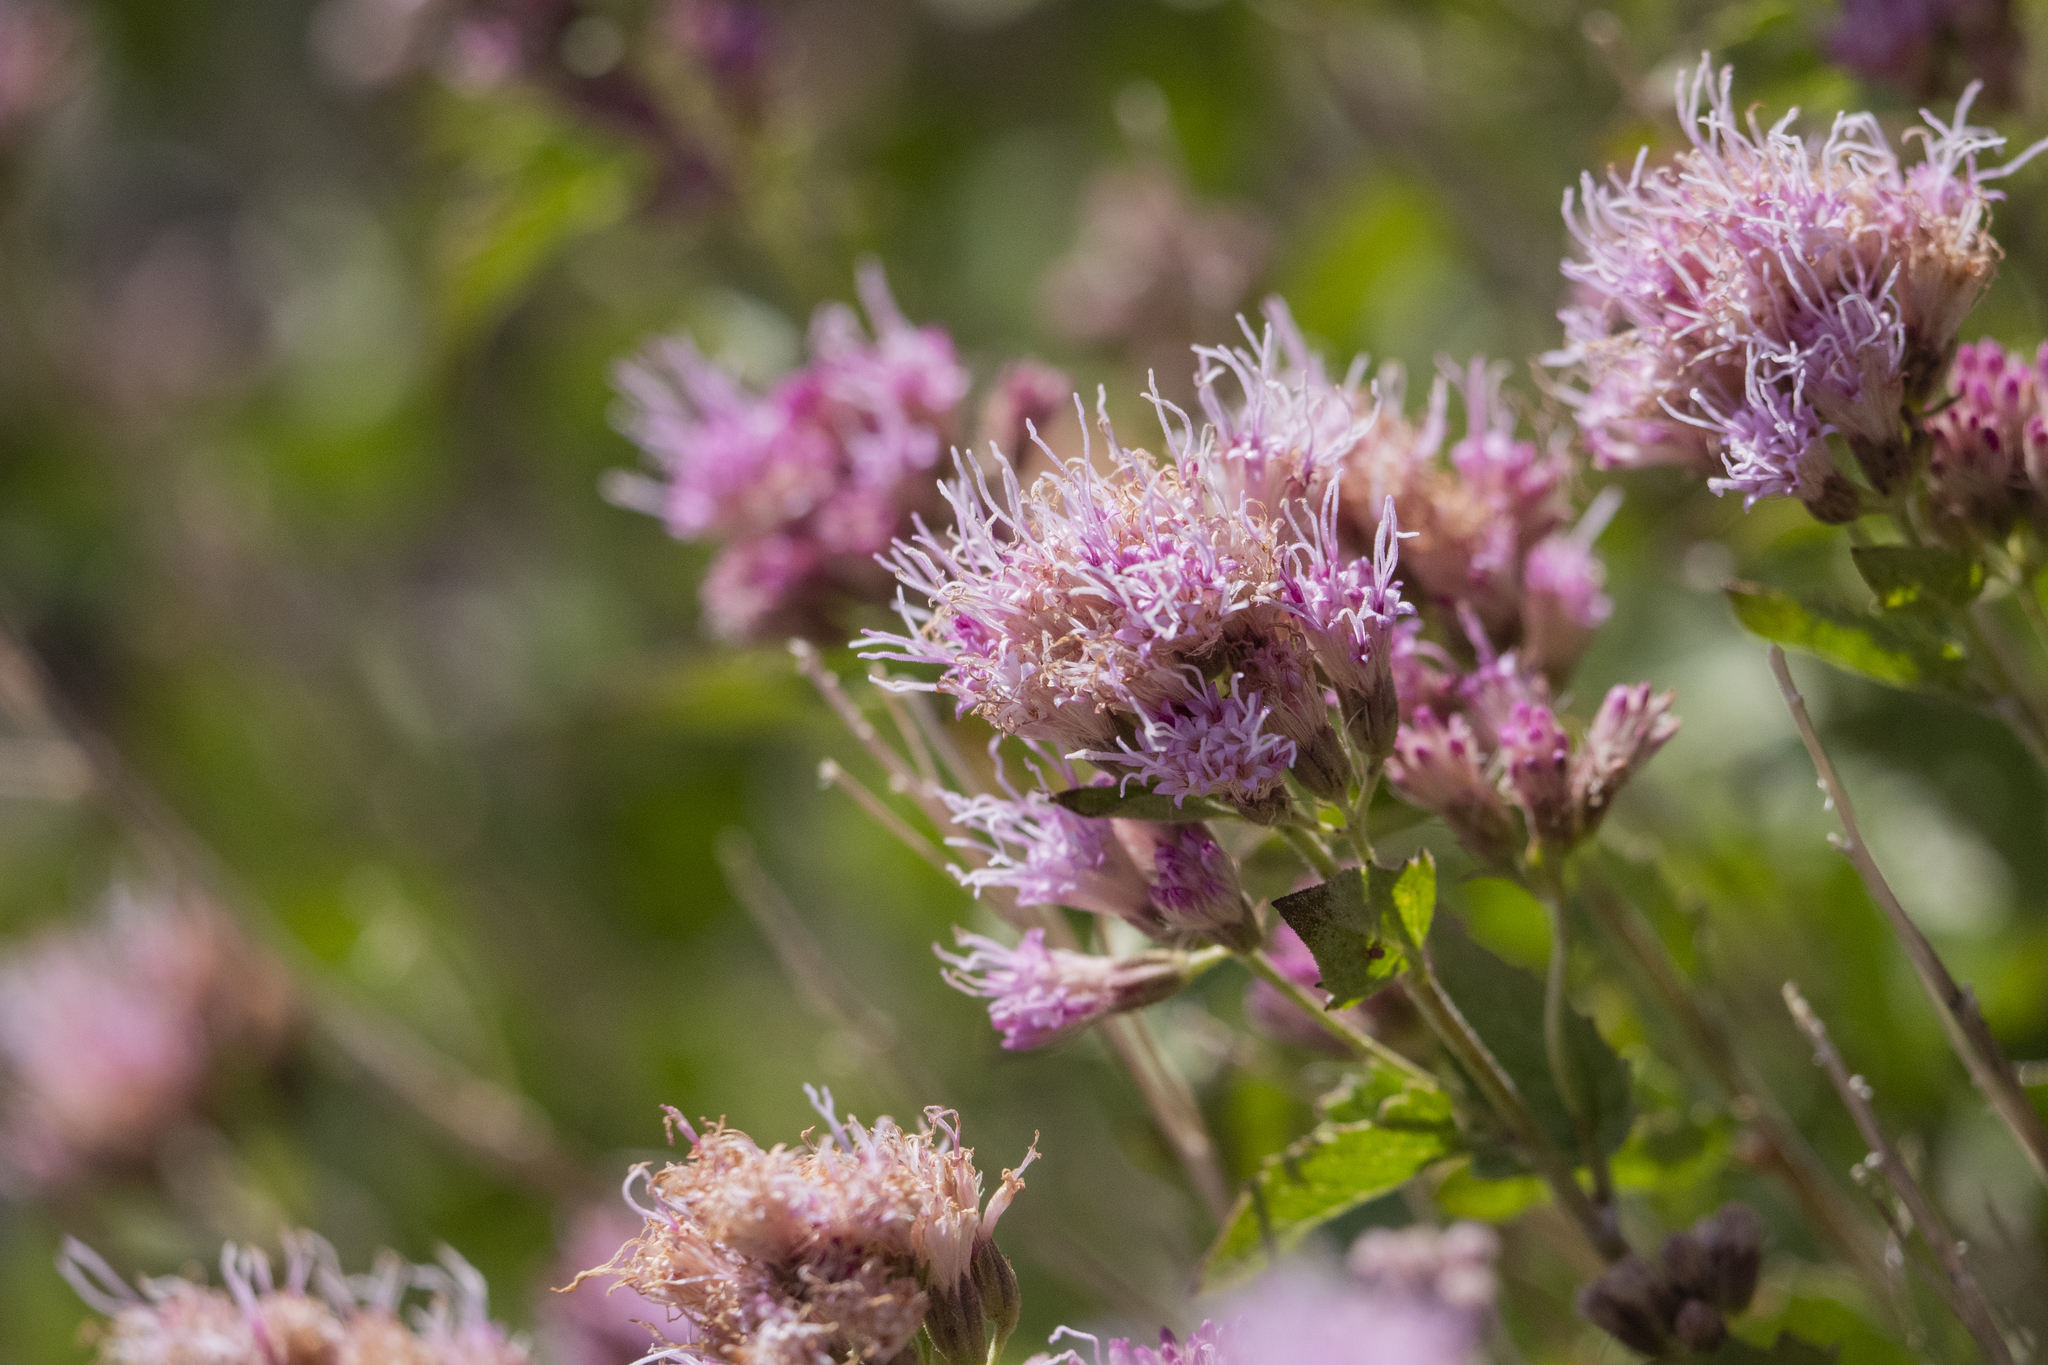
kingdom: Plantae
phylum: Tracheophyta
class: Magnoliopsida
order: Asterales
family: Asteraceae
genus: Ageratina
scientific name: Ageratina occidentalis
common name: Western snakeroot
